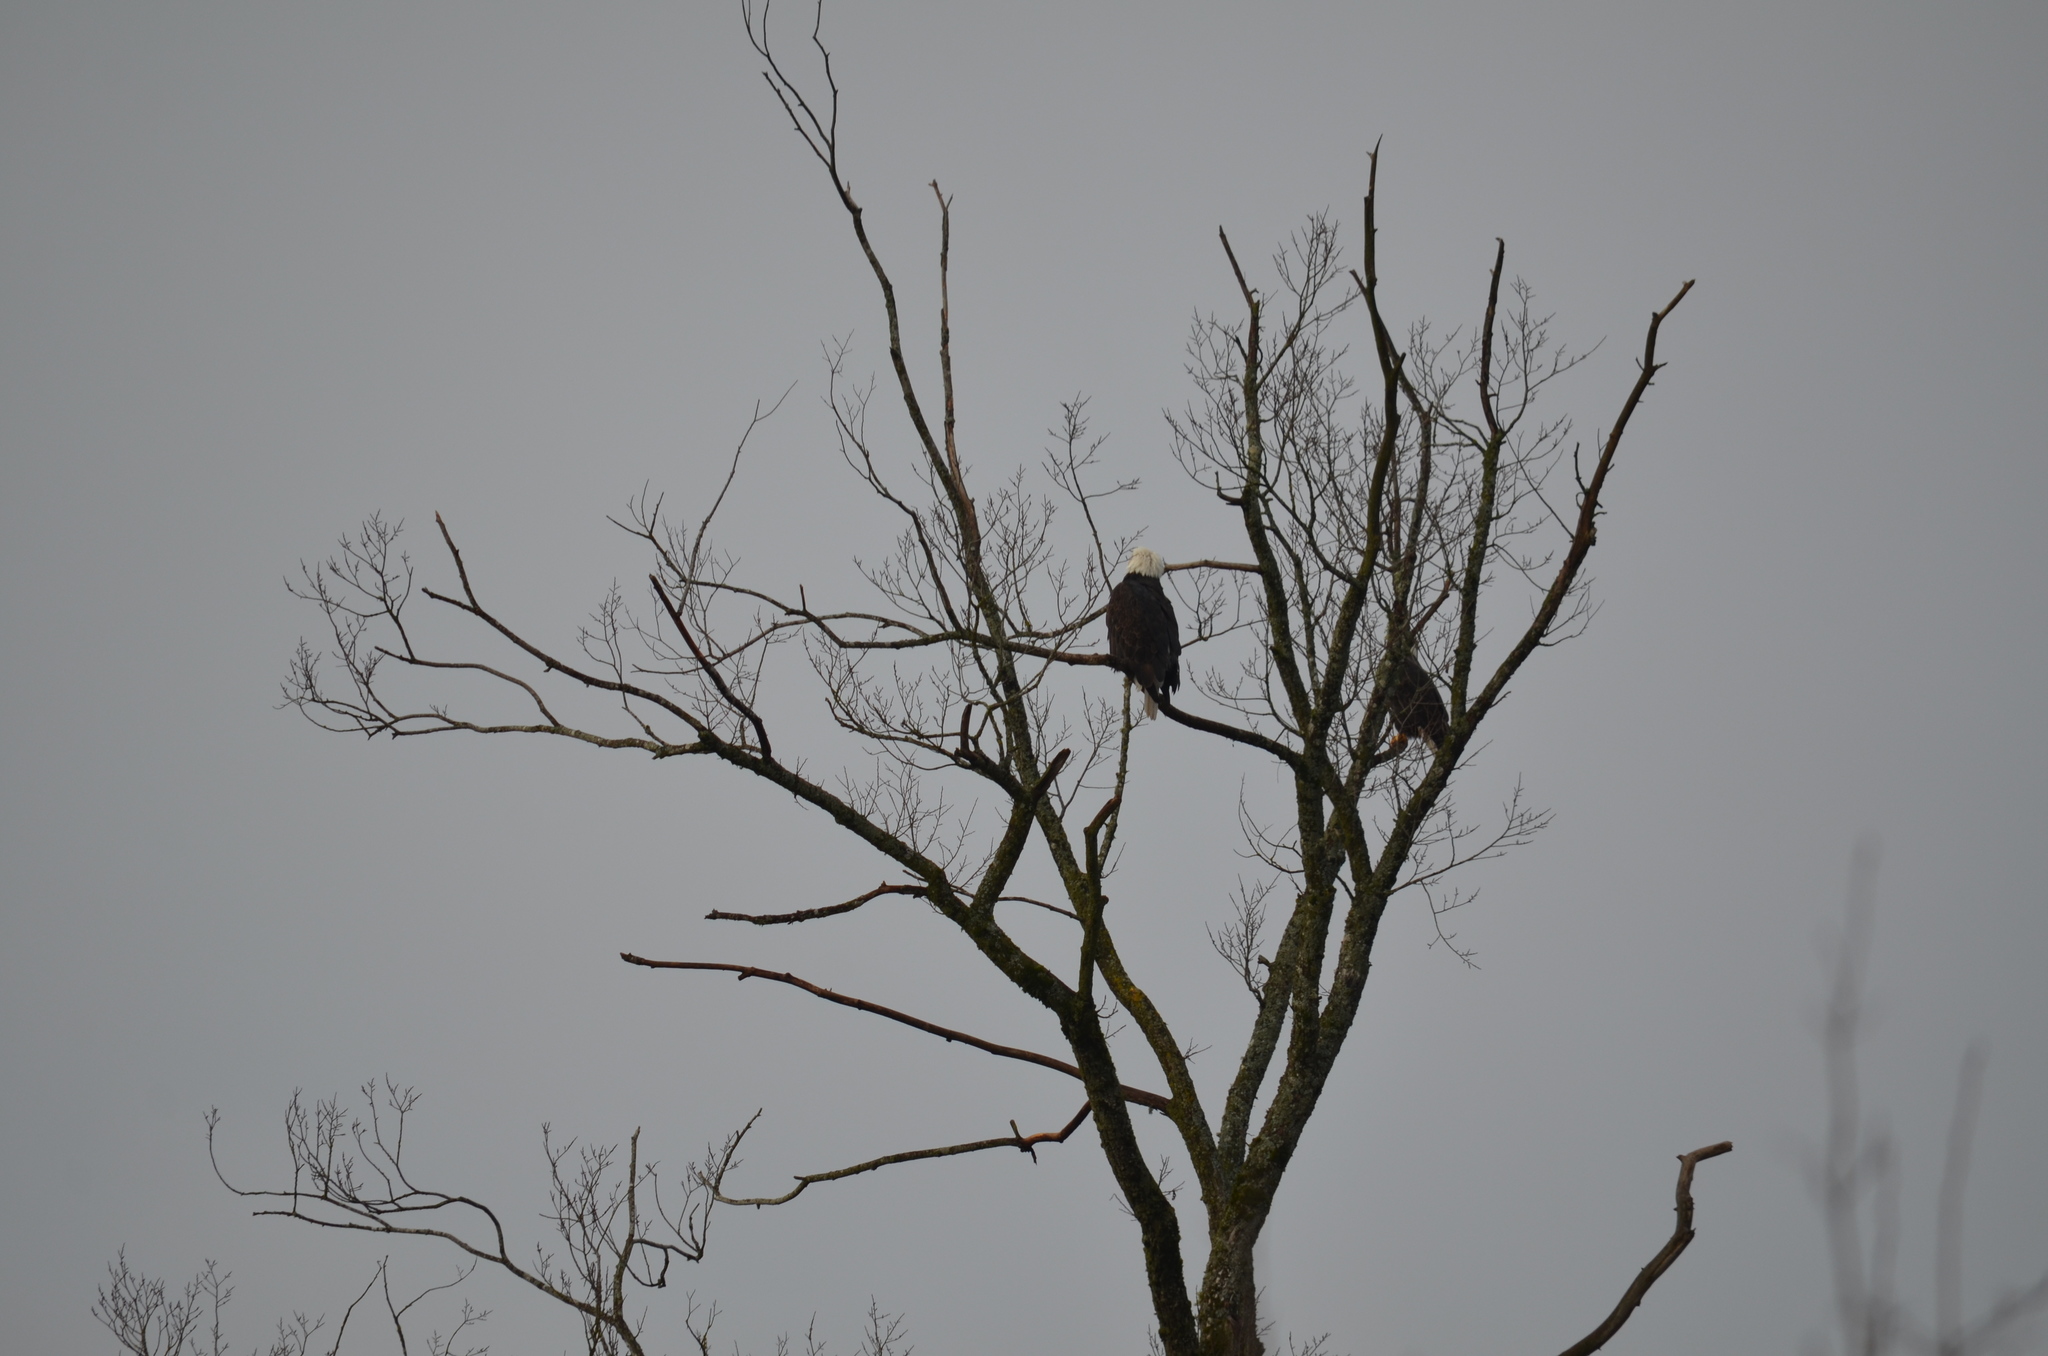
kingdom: Animalia
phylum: Chordata
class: Aves
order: Accipitriformes
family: Accipitridae
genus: Haliaeetus
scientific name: Haliaeetus leucocephalus
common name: Bald eagle
